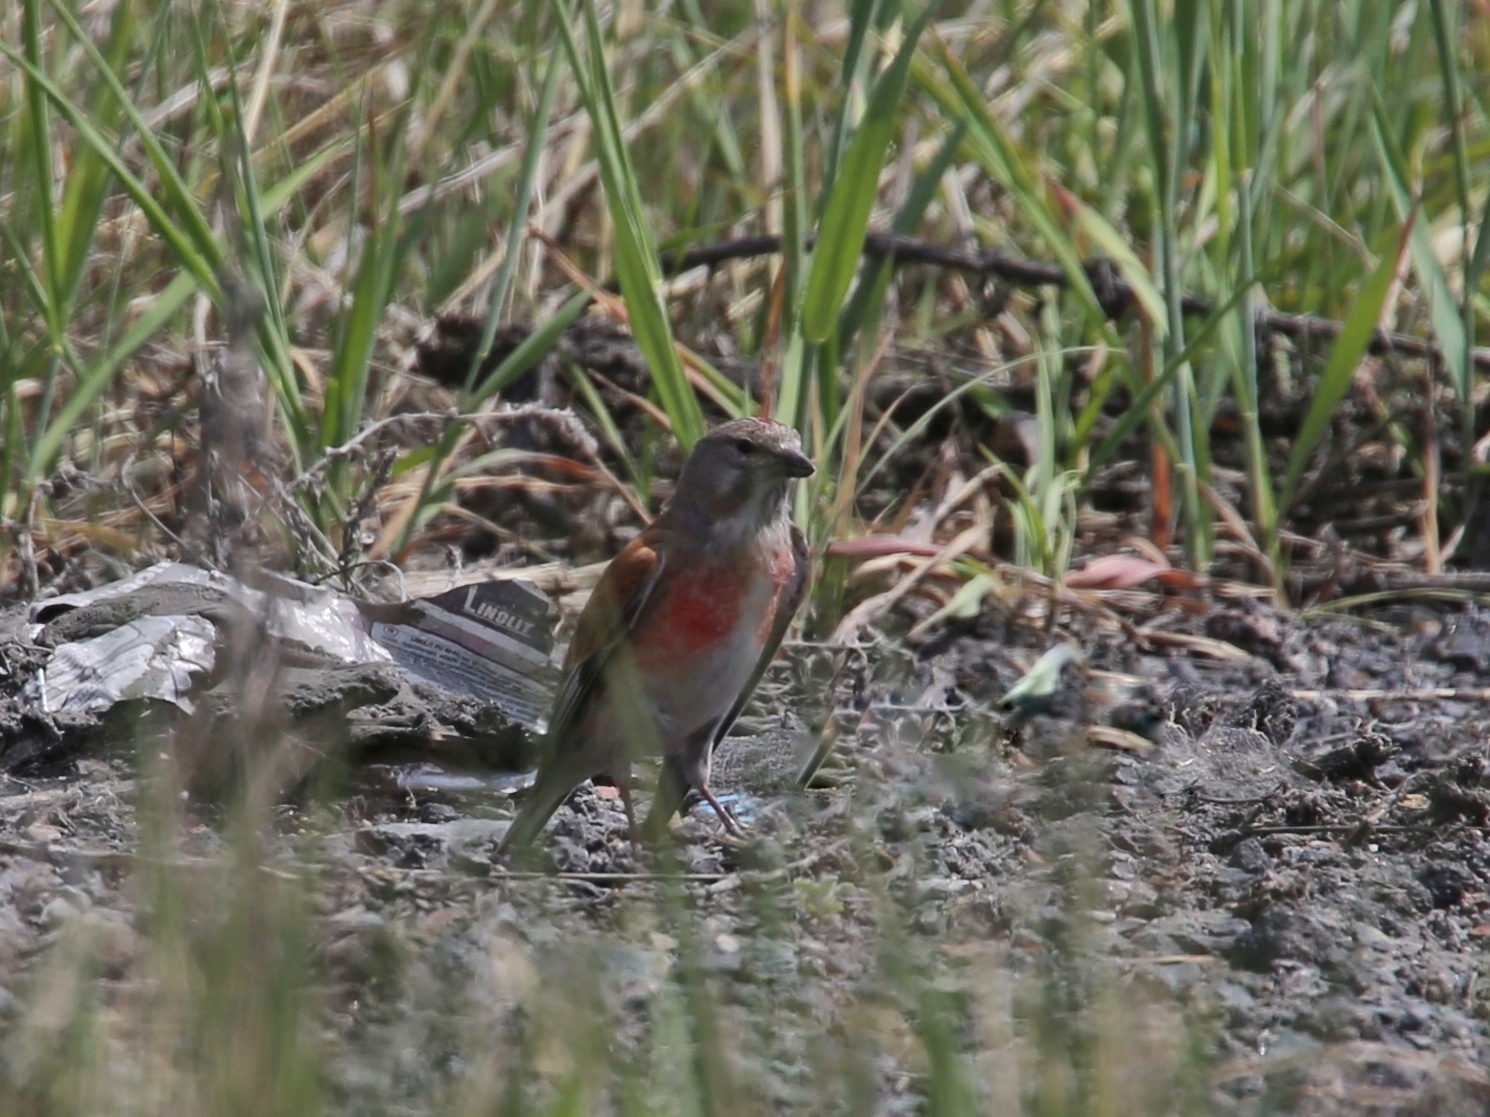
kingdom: Animalia
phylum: Chordata
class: Aves
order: Passeriformes
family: Fringillidae
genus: Linaria
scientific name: Linaria cannabina
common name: Common linnet
